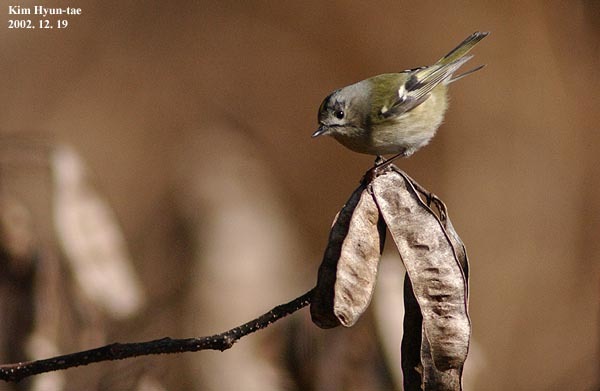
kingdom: Animalia
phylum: Chordata
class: Aves
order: Passeriformes
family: Regulidae
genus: Regulus
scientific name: Regulus regulus
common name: Goldcrest
